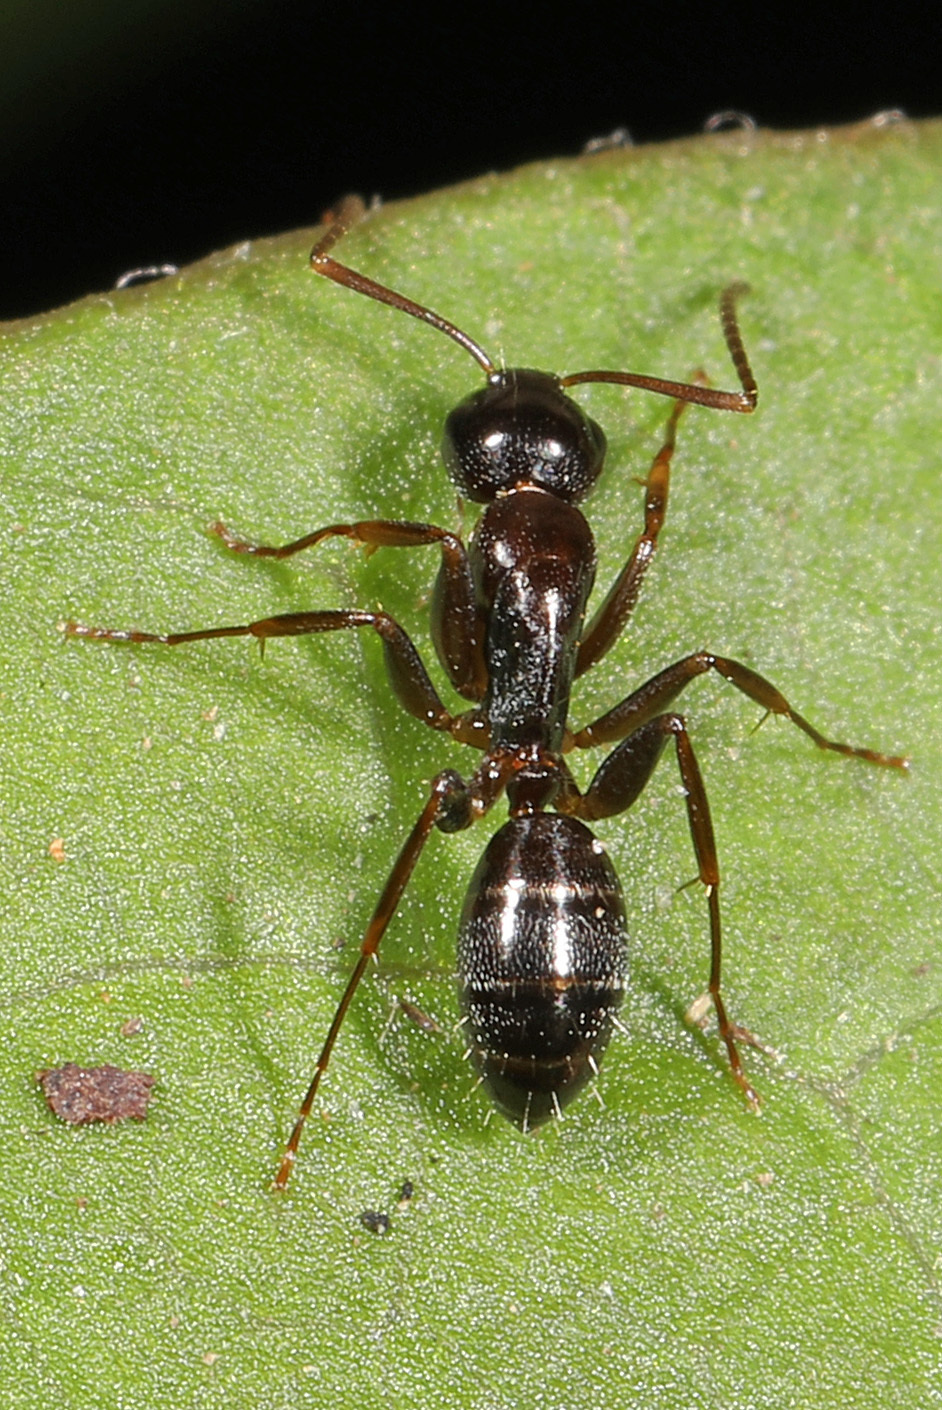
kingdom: Animalia
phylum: Arthropoda
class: Insecta
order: Hymenoptera
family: Formicidae
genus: Camponotus
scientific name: Camponotus nearcticus
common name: Smaller carpenter ant
